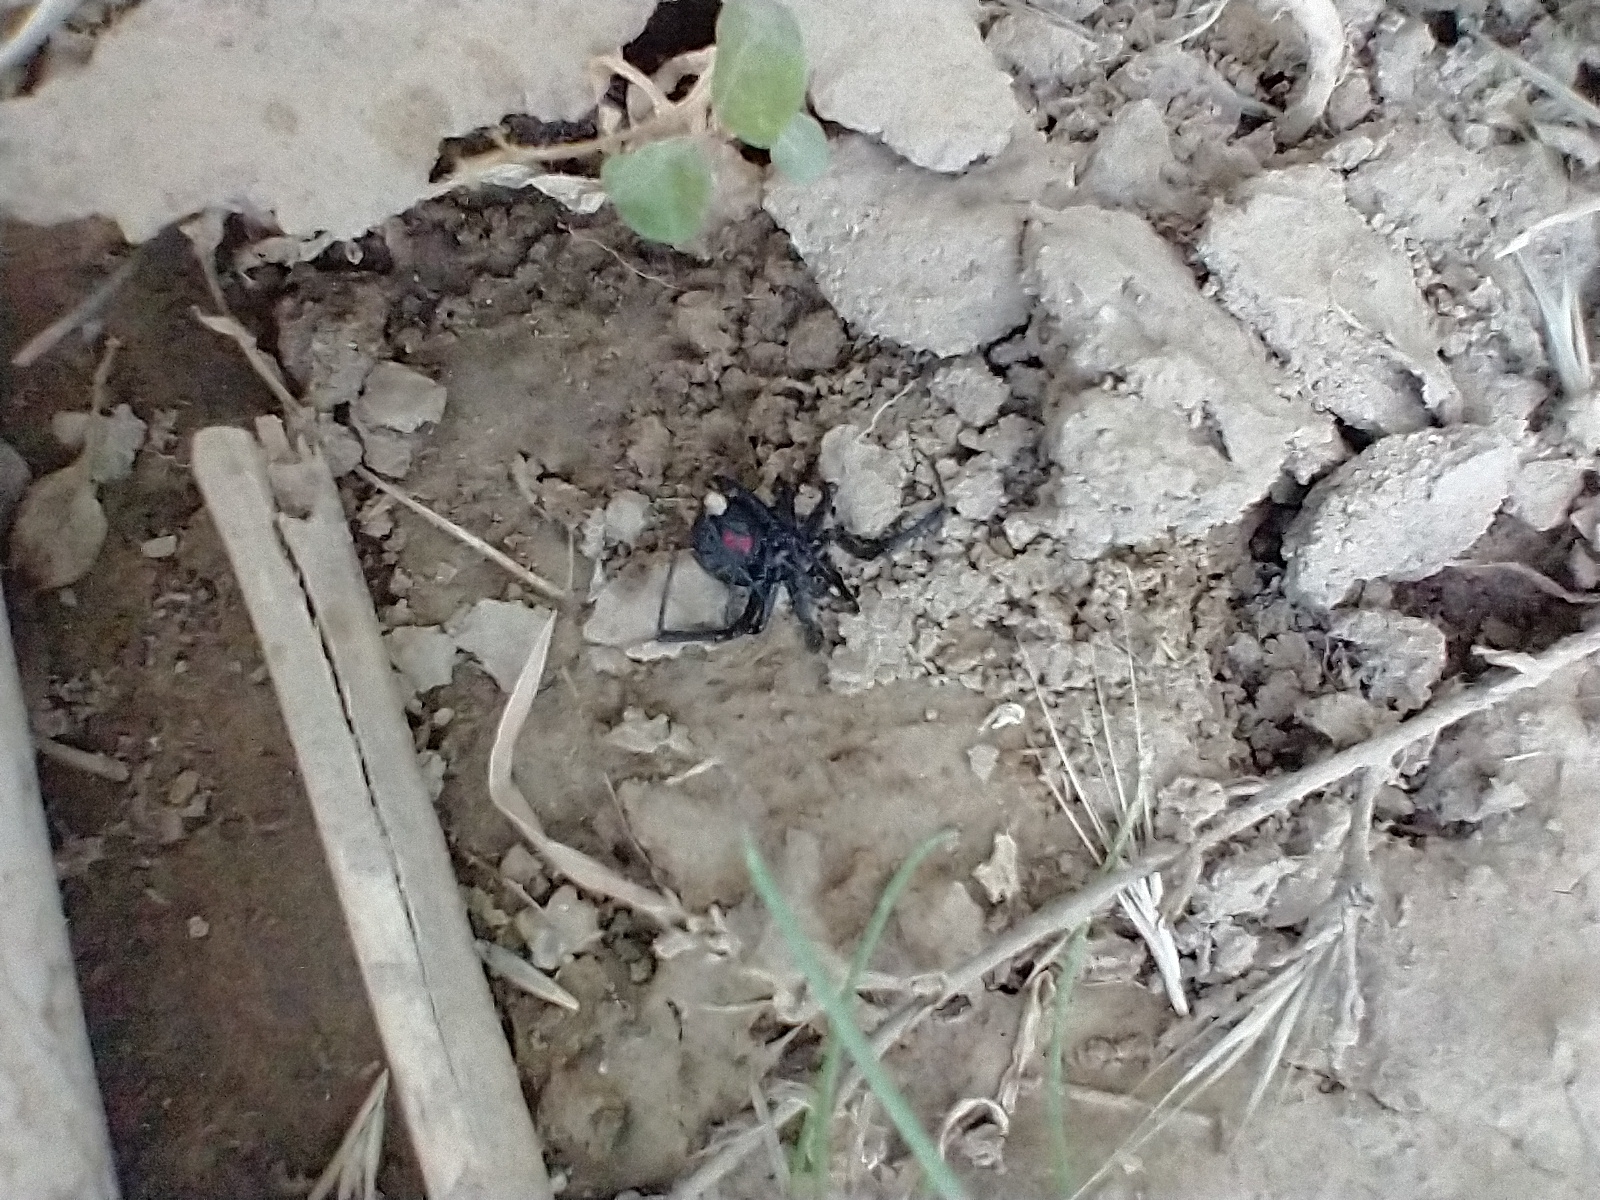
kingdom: Animalia
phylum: Arthropoda
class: Arachnida
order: Araneae
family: Theridiidae
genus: Latrodectus
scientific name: Latrodectus hesperus
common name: Western black widow
